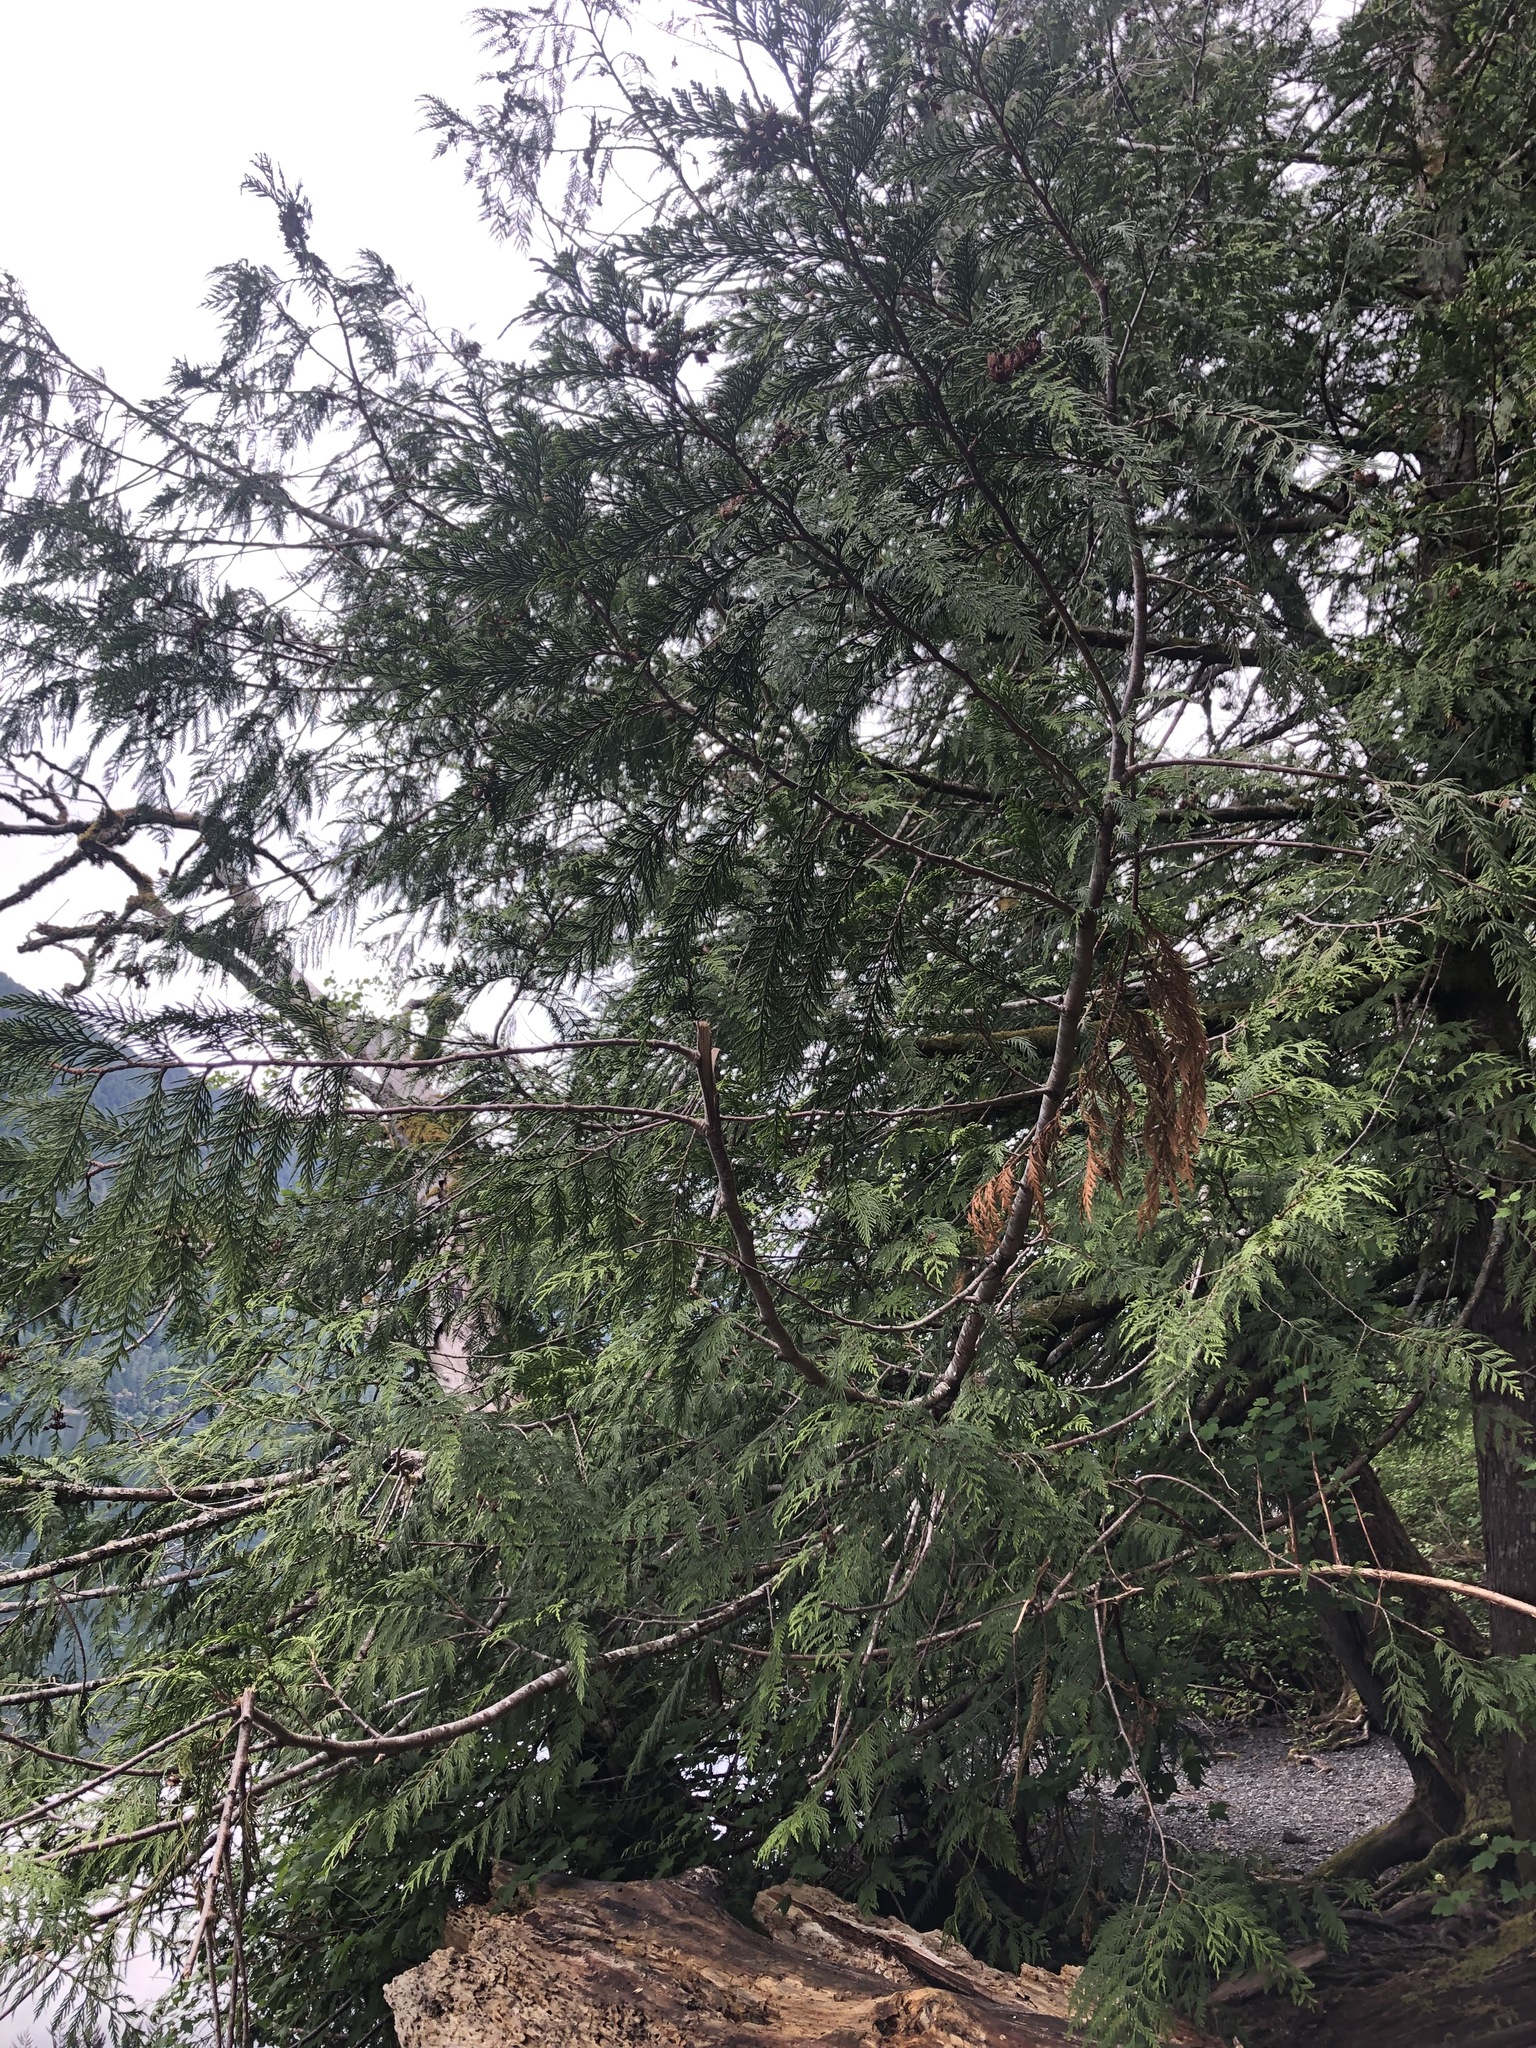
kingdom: Plantae
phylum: Tracheophyta
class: Pinopsida
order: Pinales
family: Cupressaceae
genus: Thuja
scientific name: Thuja plicata
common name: Western red-cedar
